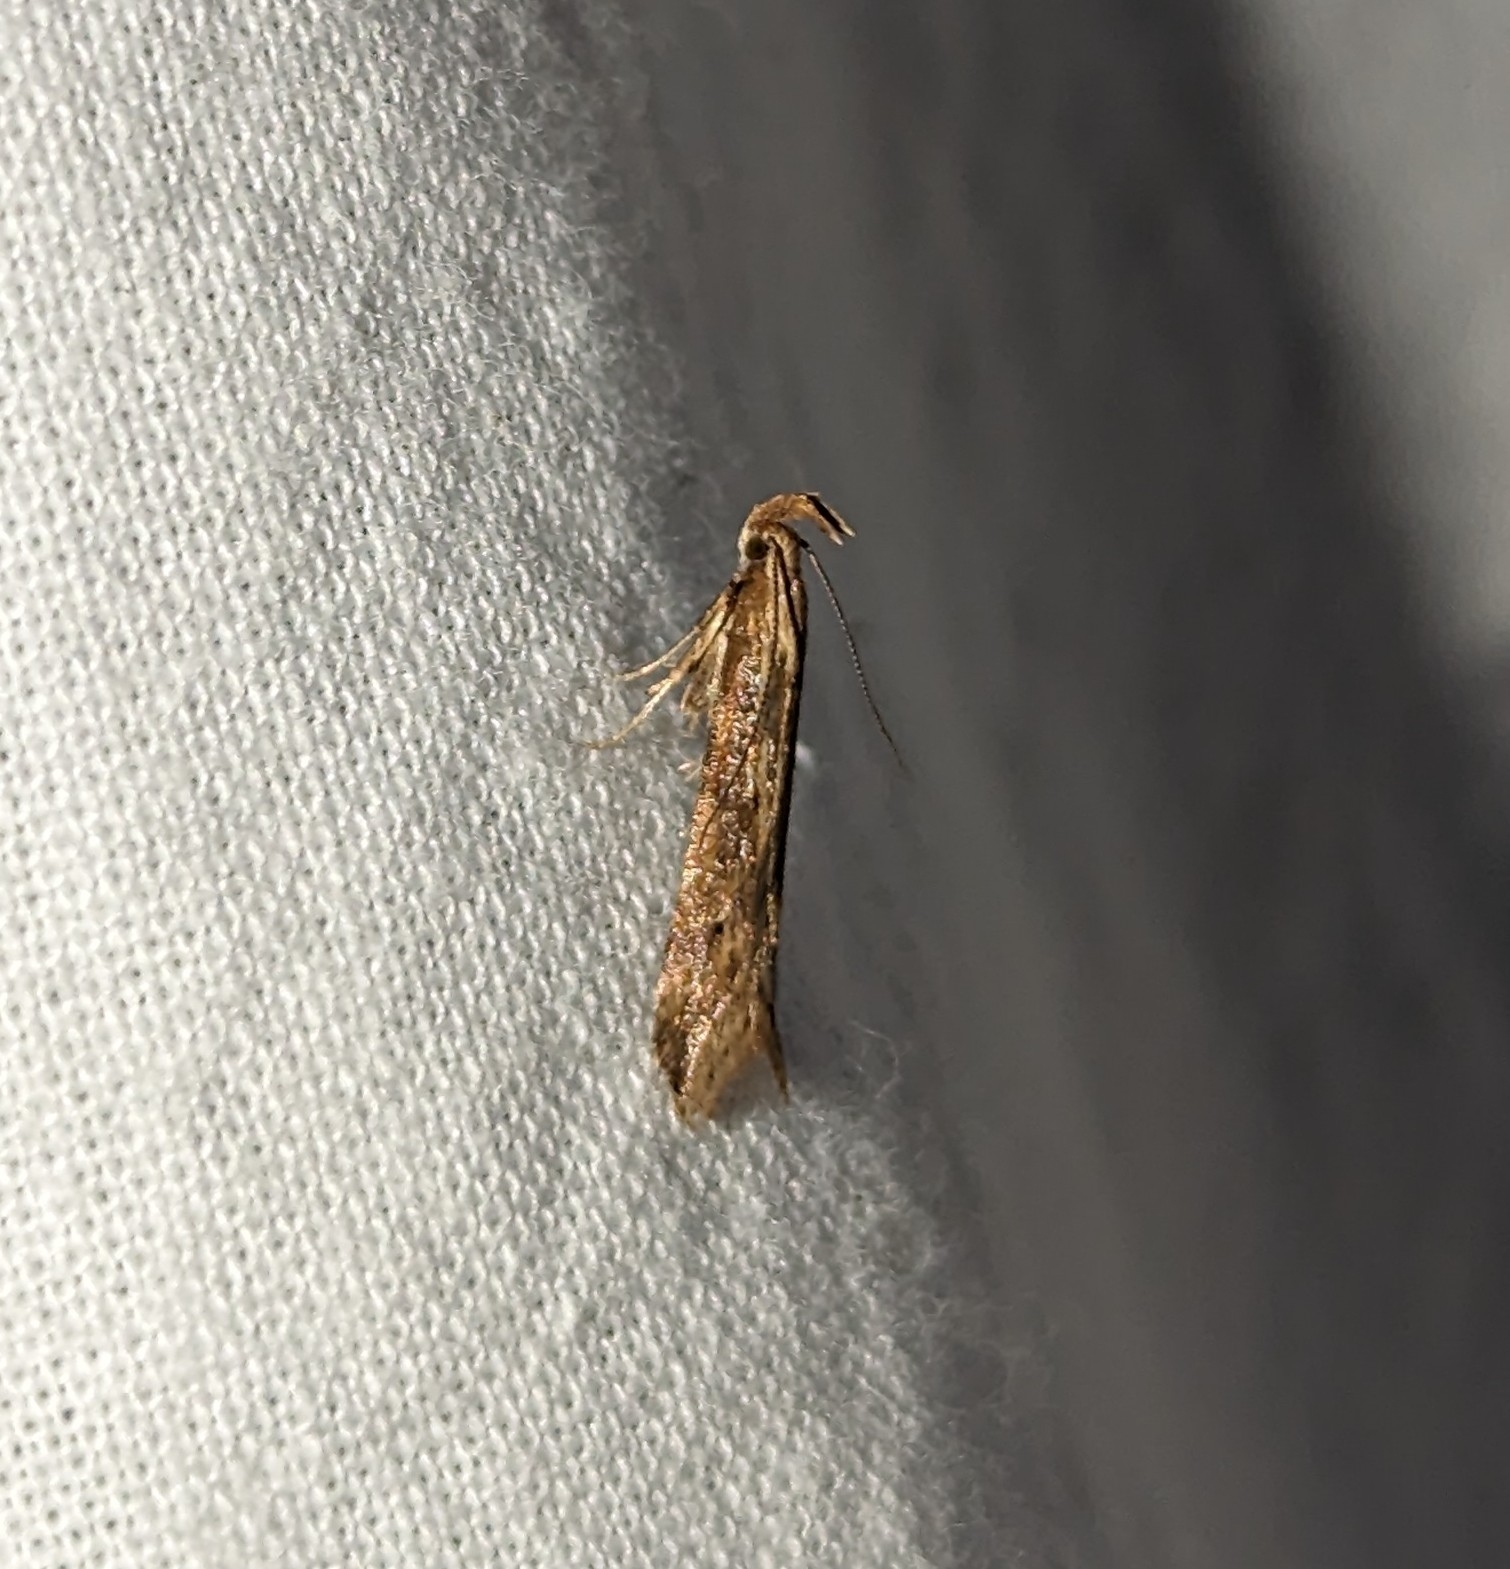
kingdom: Animalia
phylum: Arthropoda
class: Insecta
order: Lepidoptera
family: Gelechiidae
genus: Metzneria
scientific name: Metzneria lappella
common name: Burdock neb
